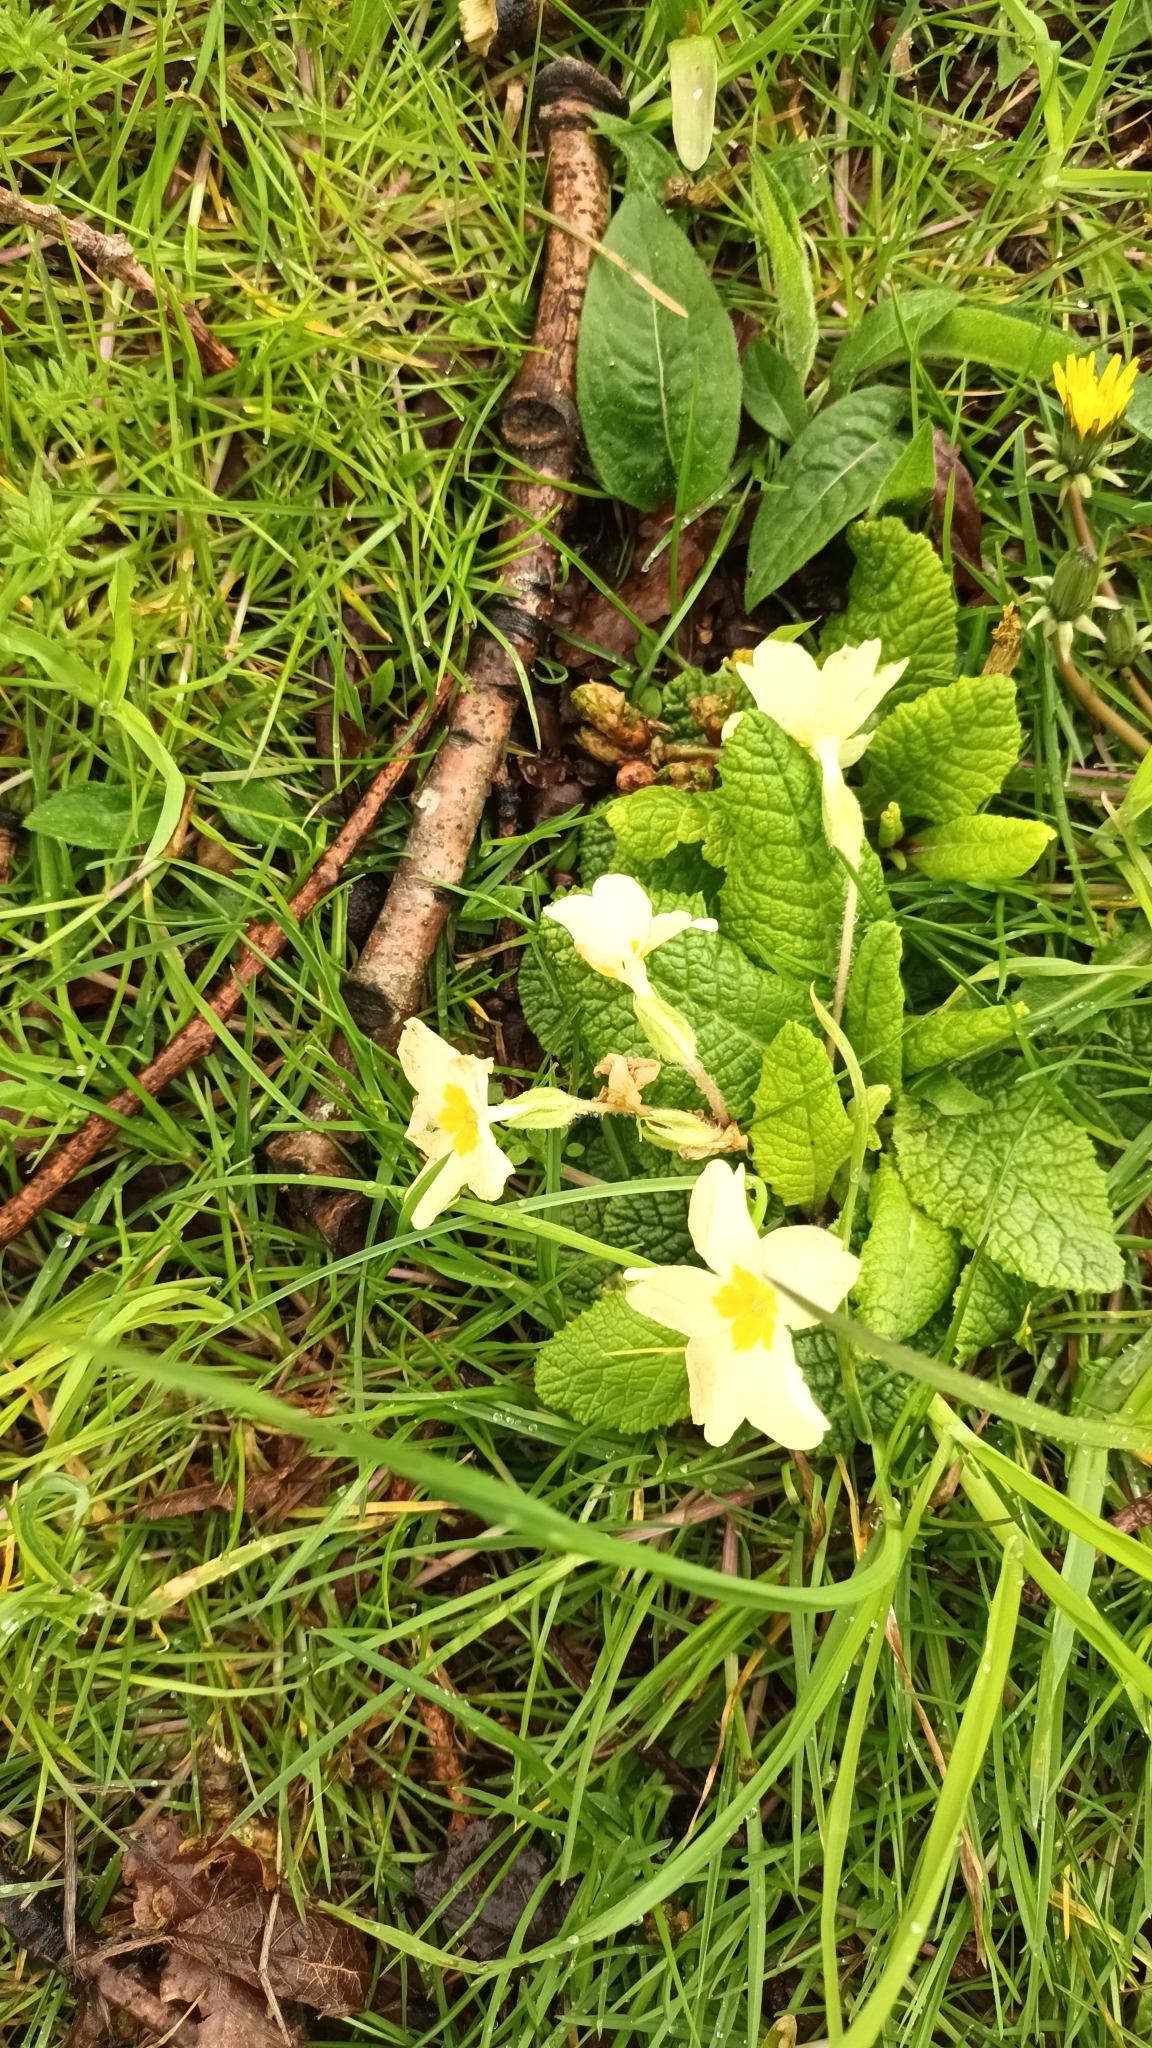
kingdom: Plantae
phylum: Tracheophyta
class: Magnoliopsida
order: Ericales
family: Primulaceae
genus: Primula
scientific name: Primula vulgaris
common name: Primrose
